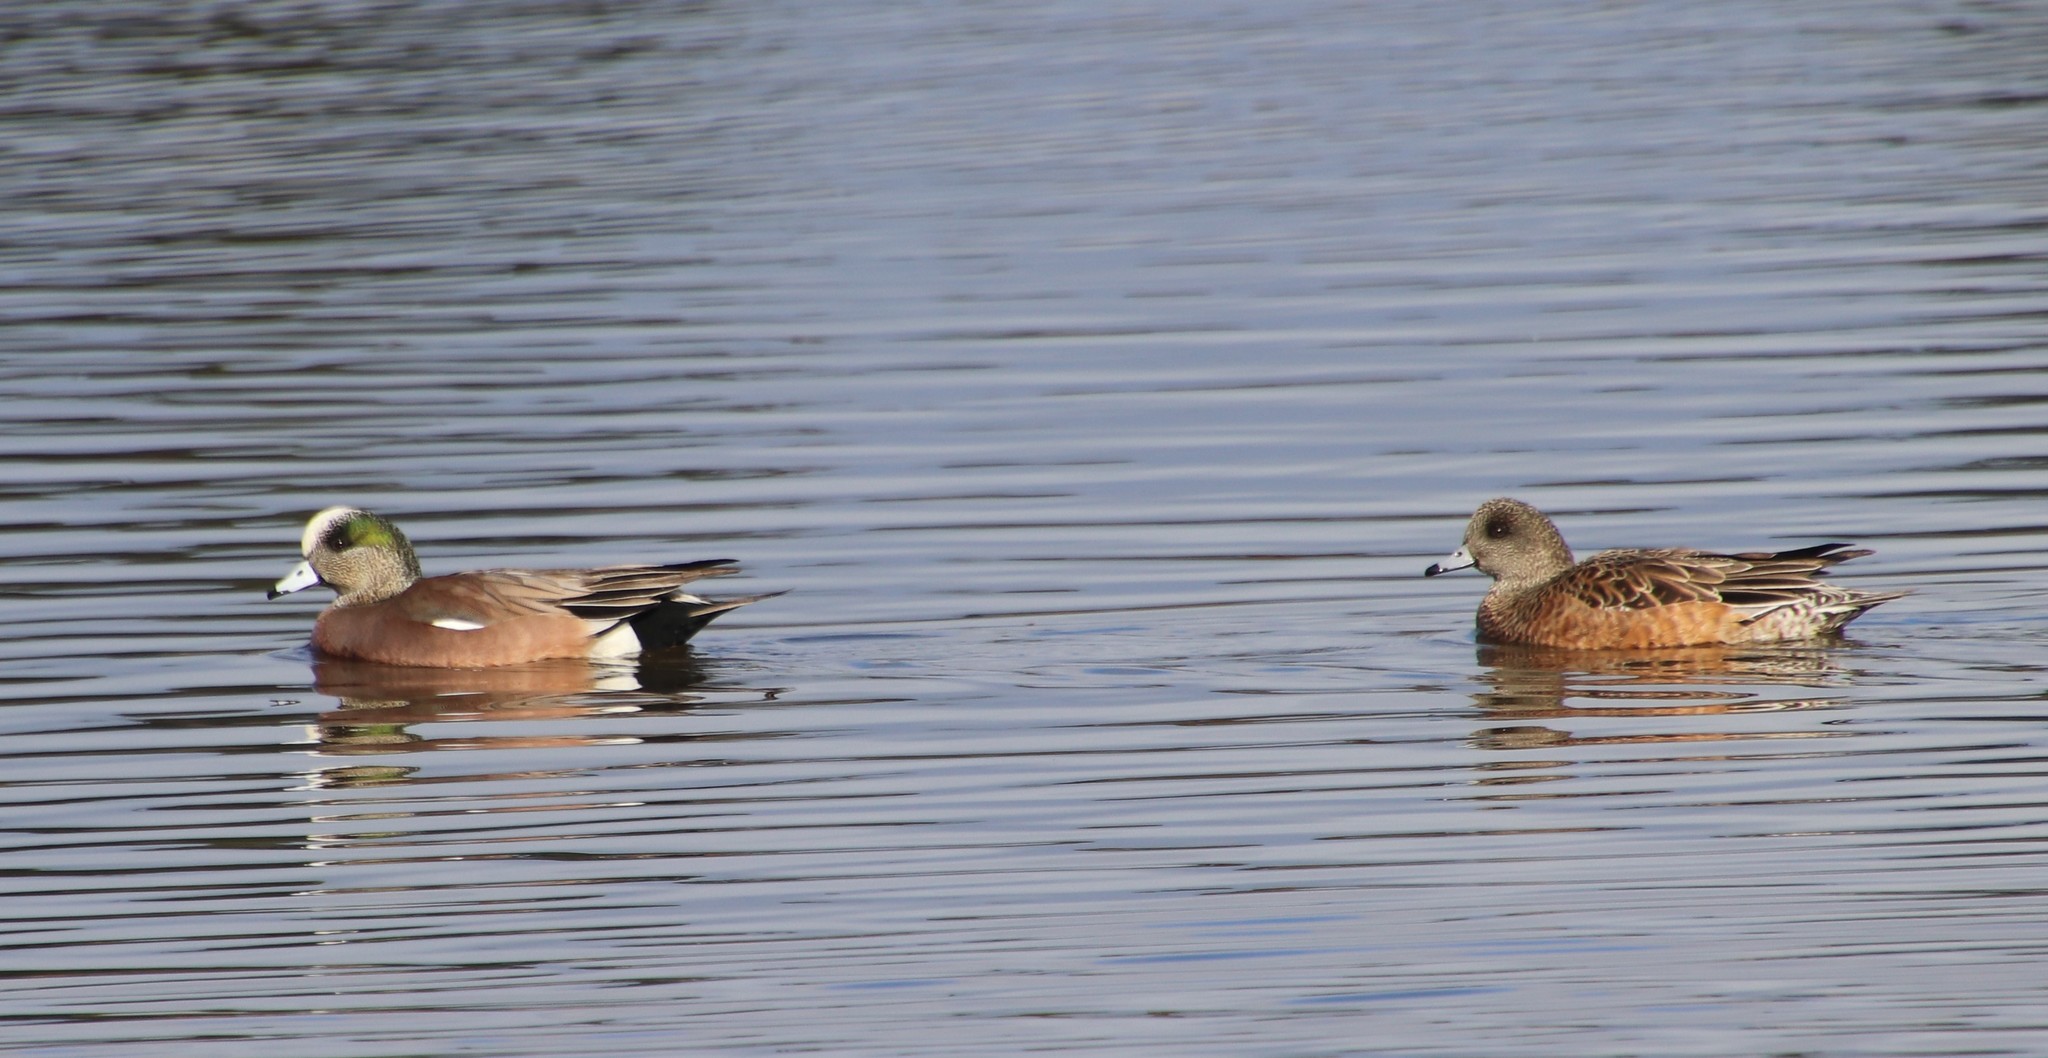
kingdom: Animalia
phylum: Chordata
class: Aves
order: Anseriformes
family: Anatidae
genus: Mareca
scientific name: Mareca americana
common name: American wigeon
